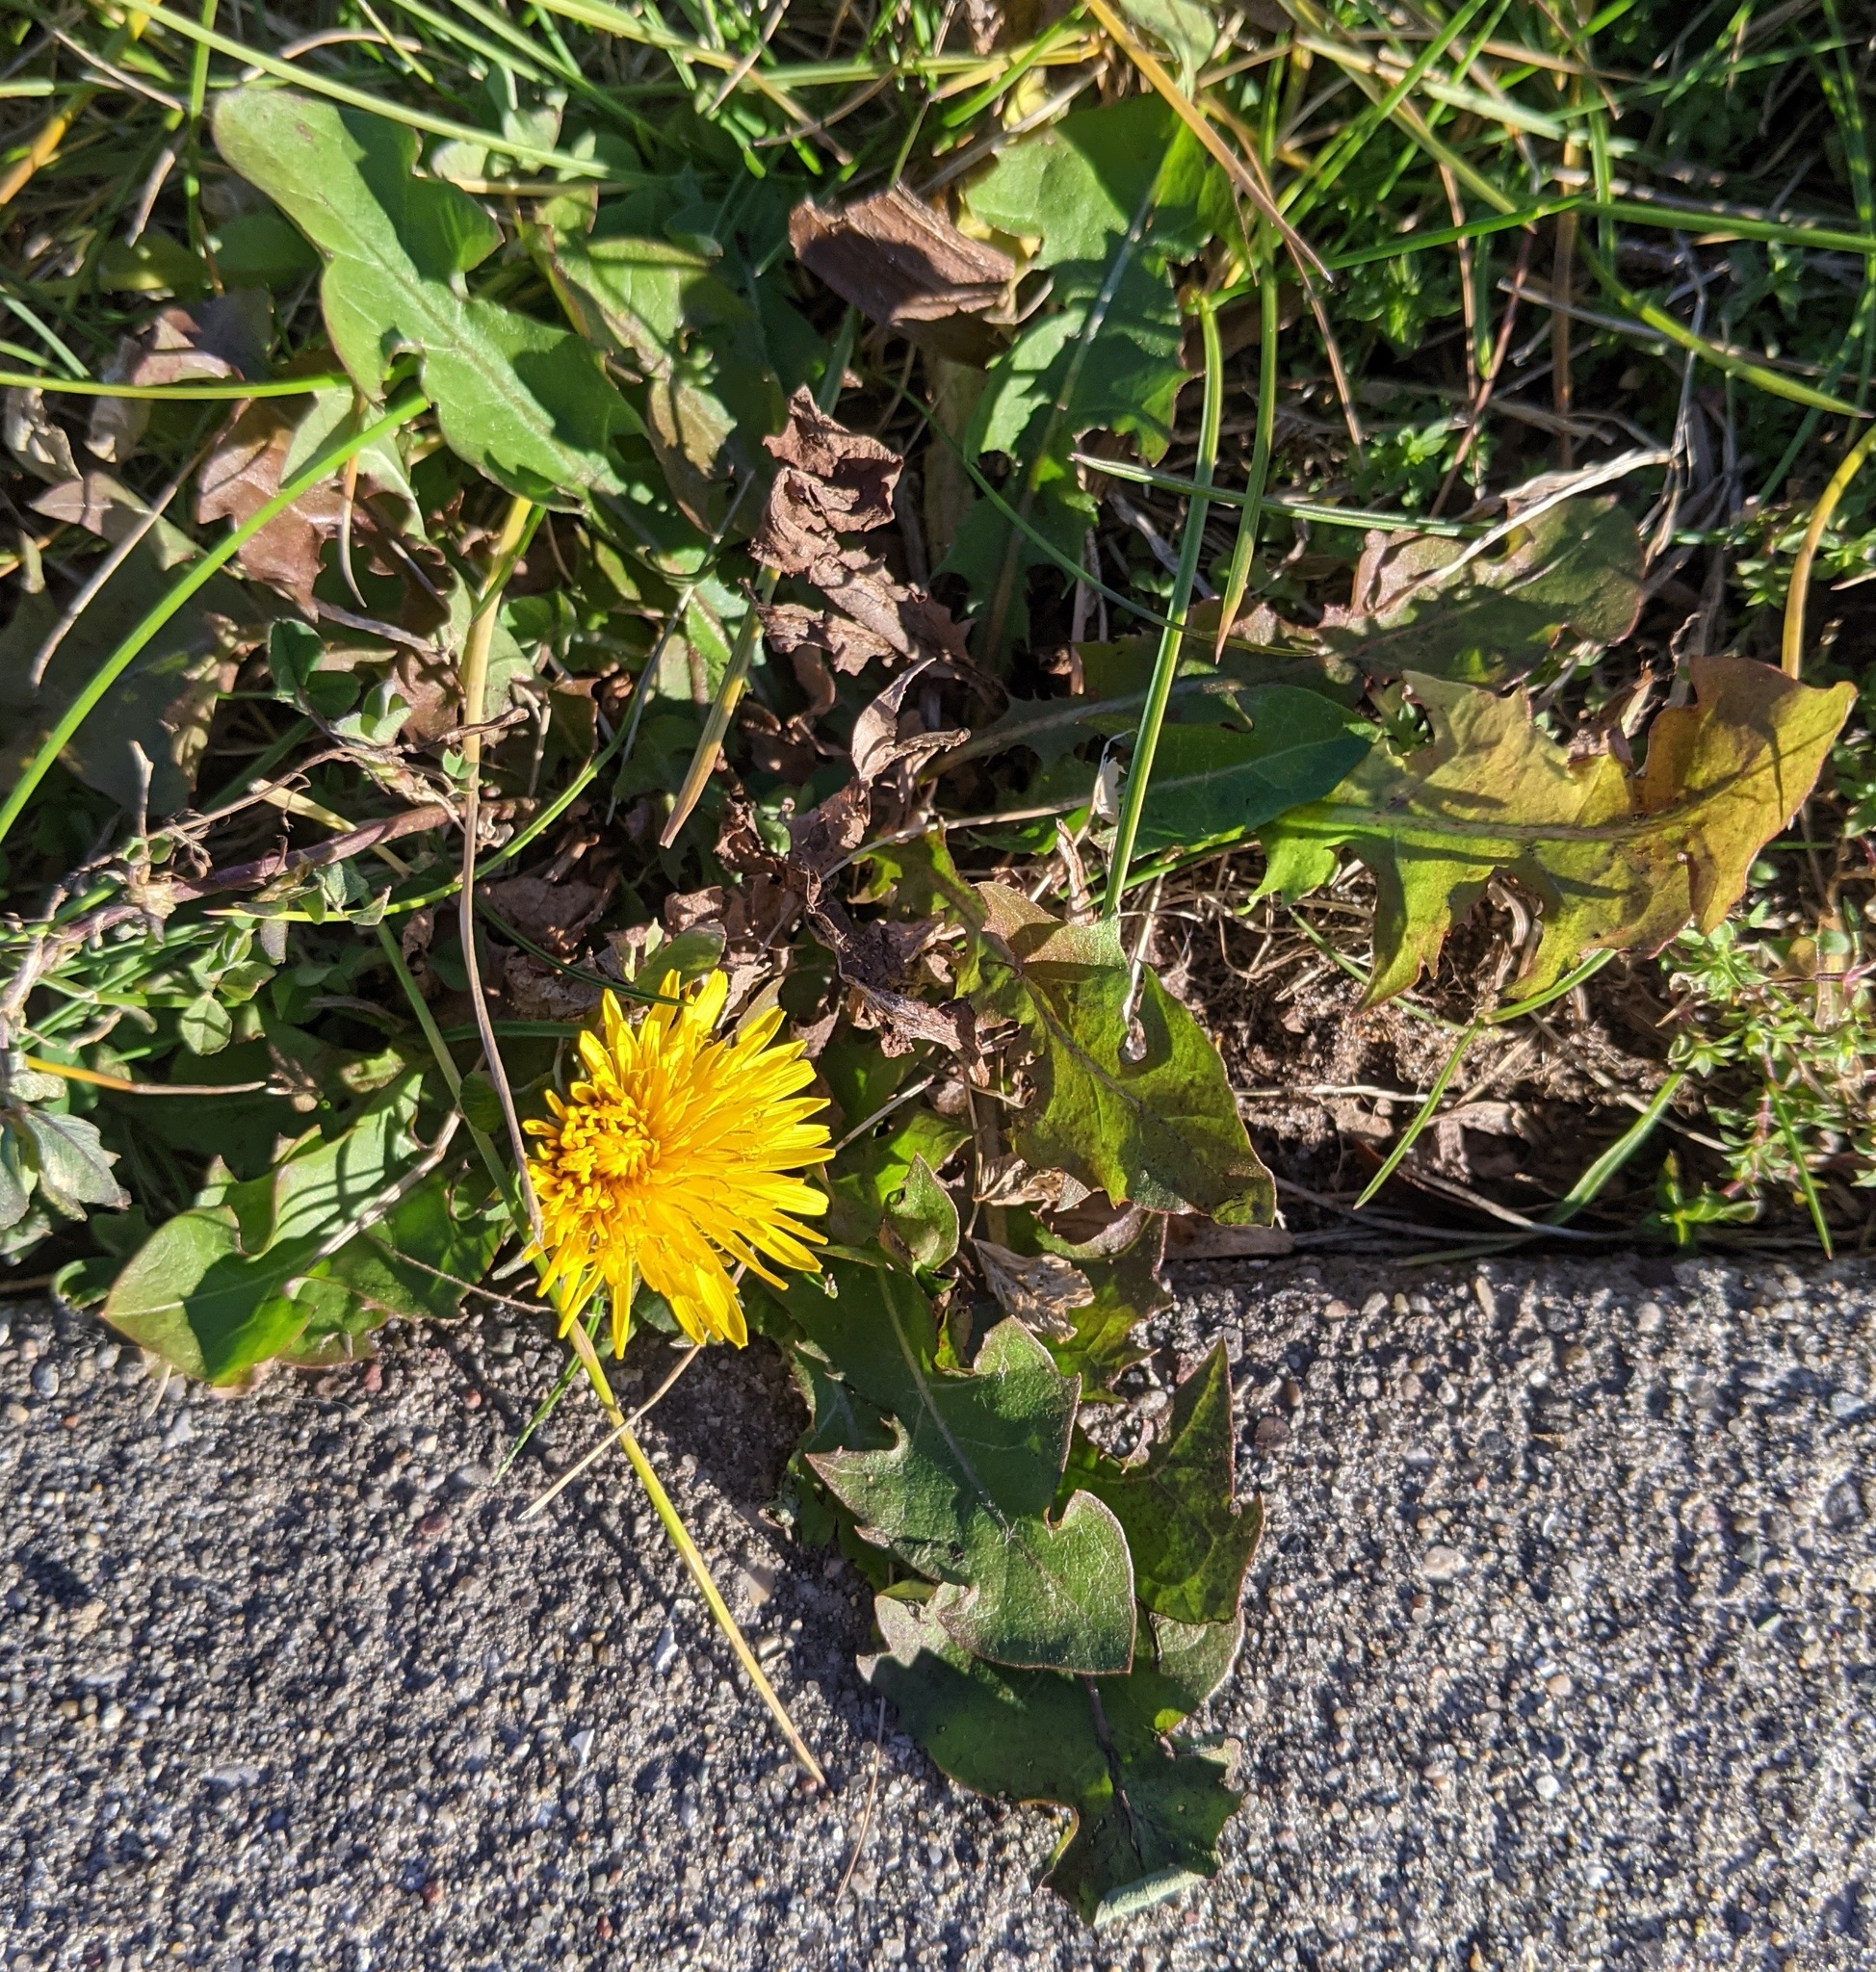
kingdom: Plantae
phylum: Tracheophyta
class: Magnoliopsida
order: Asterales
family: Asteraceae
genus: Taraxacum
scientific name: Taraxacum officinale
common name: Common dandelion
